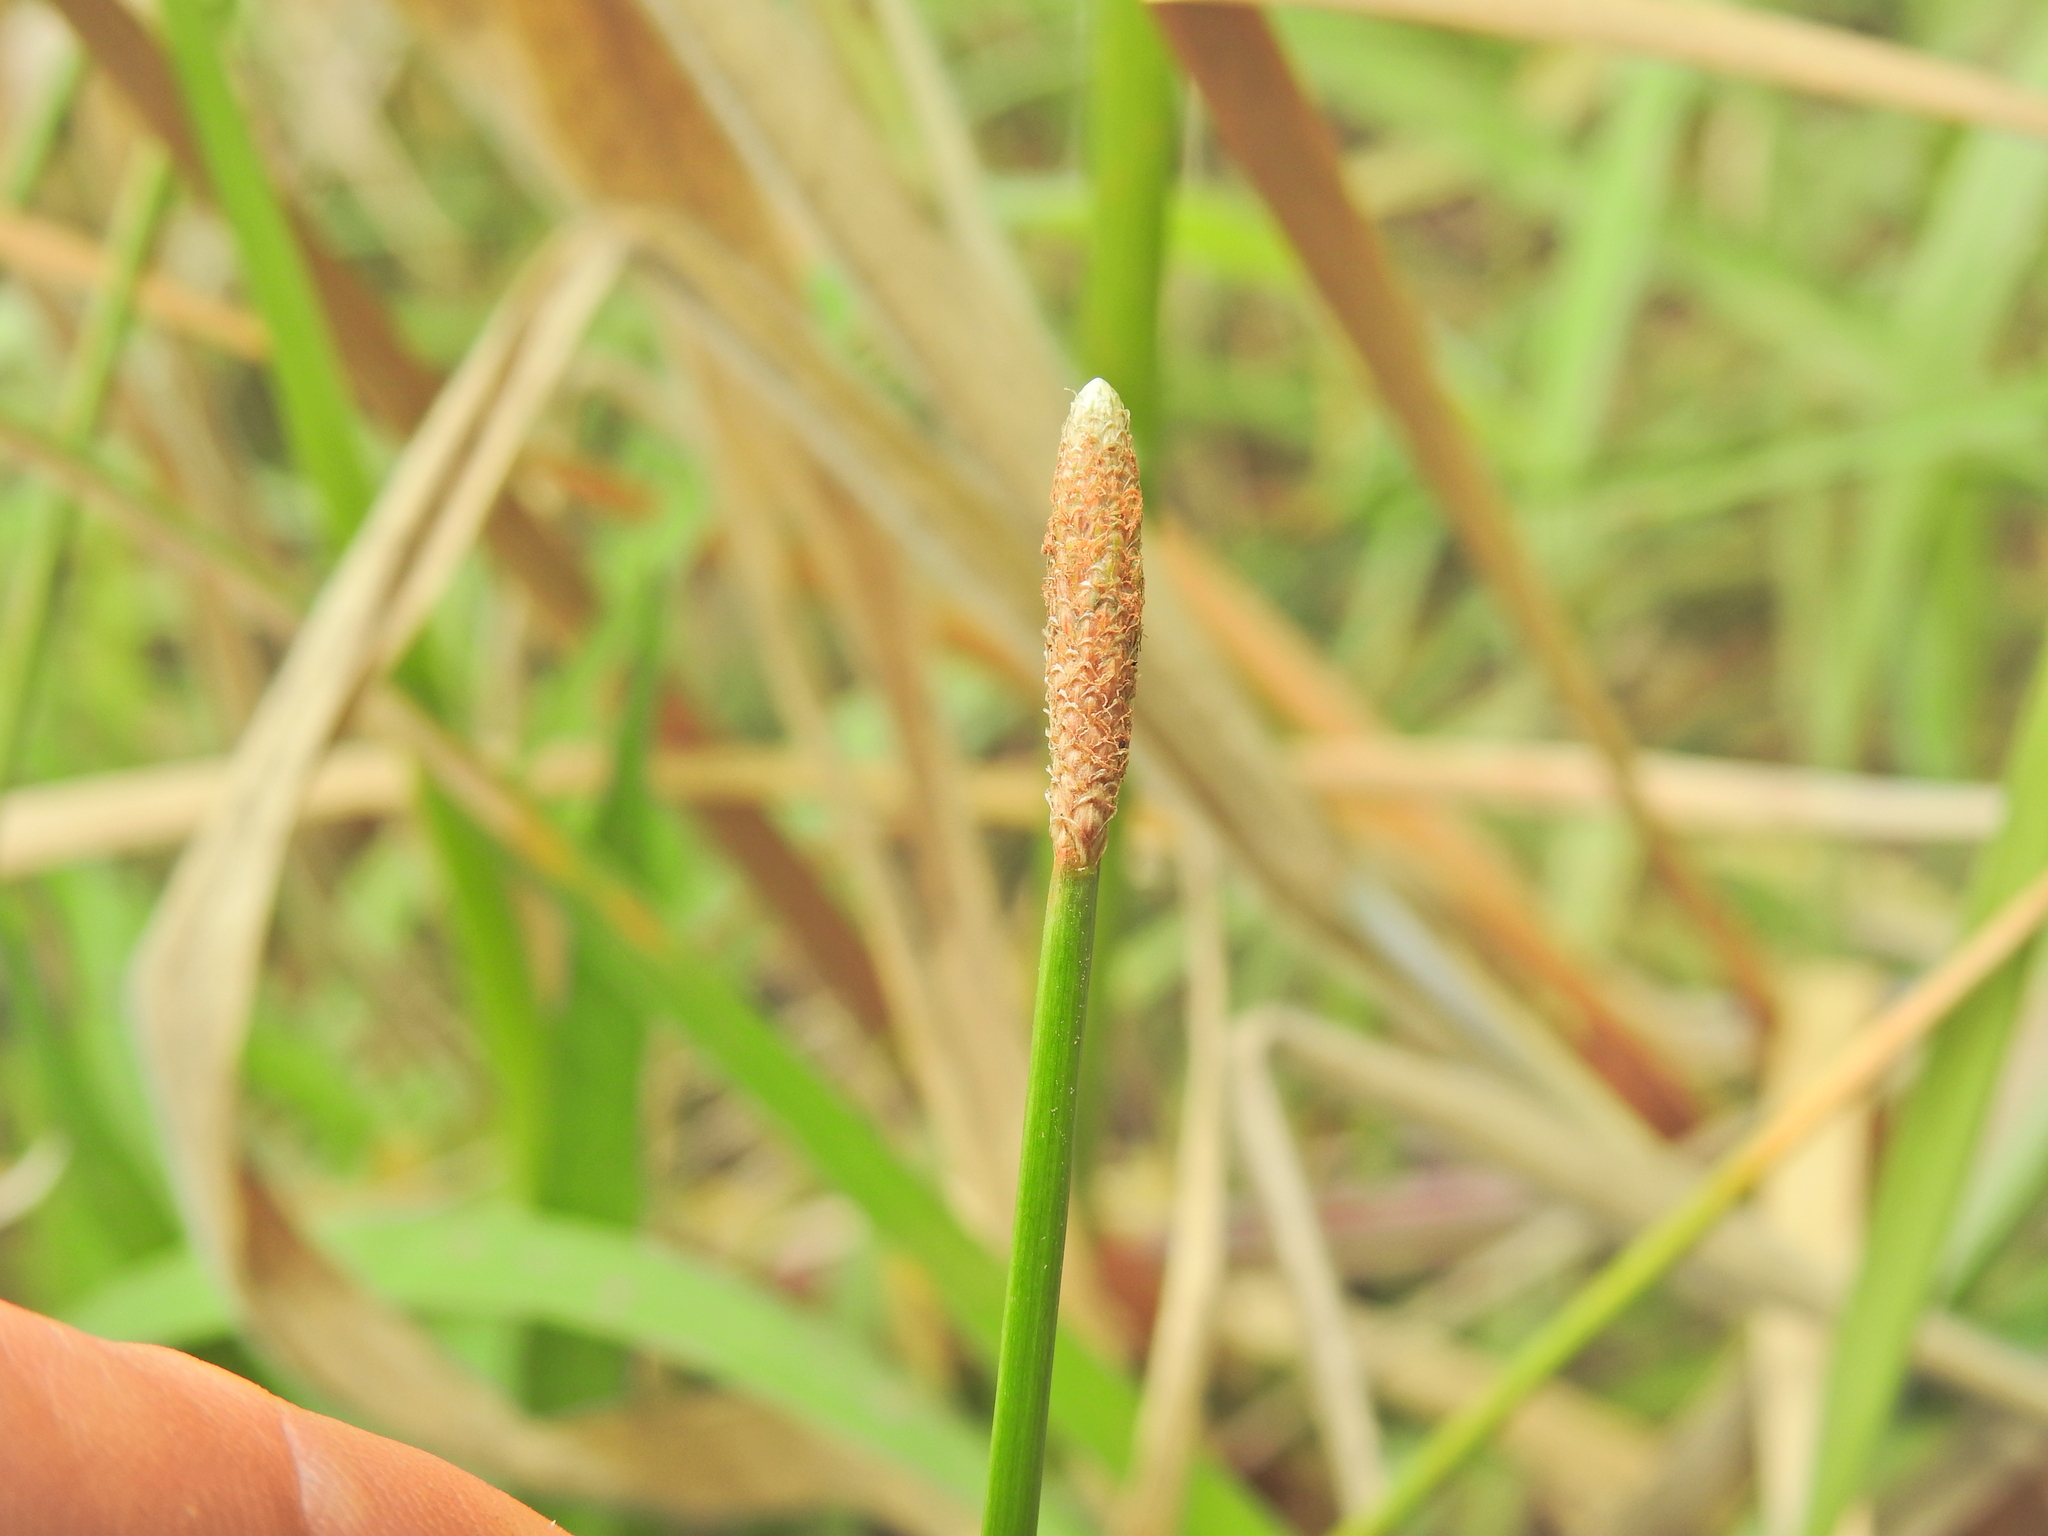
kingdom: Plantae
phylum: Tracheophyta
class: Liliopsida
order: Poales
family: Cyperaceae
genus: Eleocharis
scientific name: Eleocharis cylindrostachys
